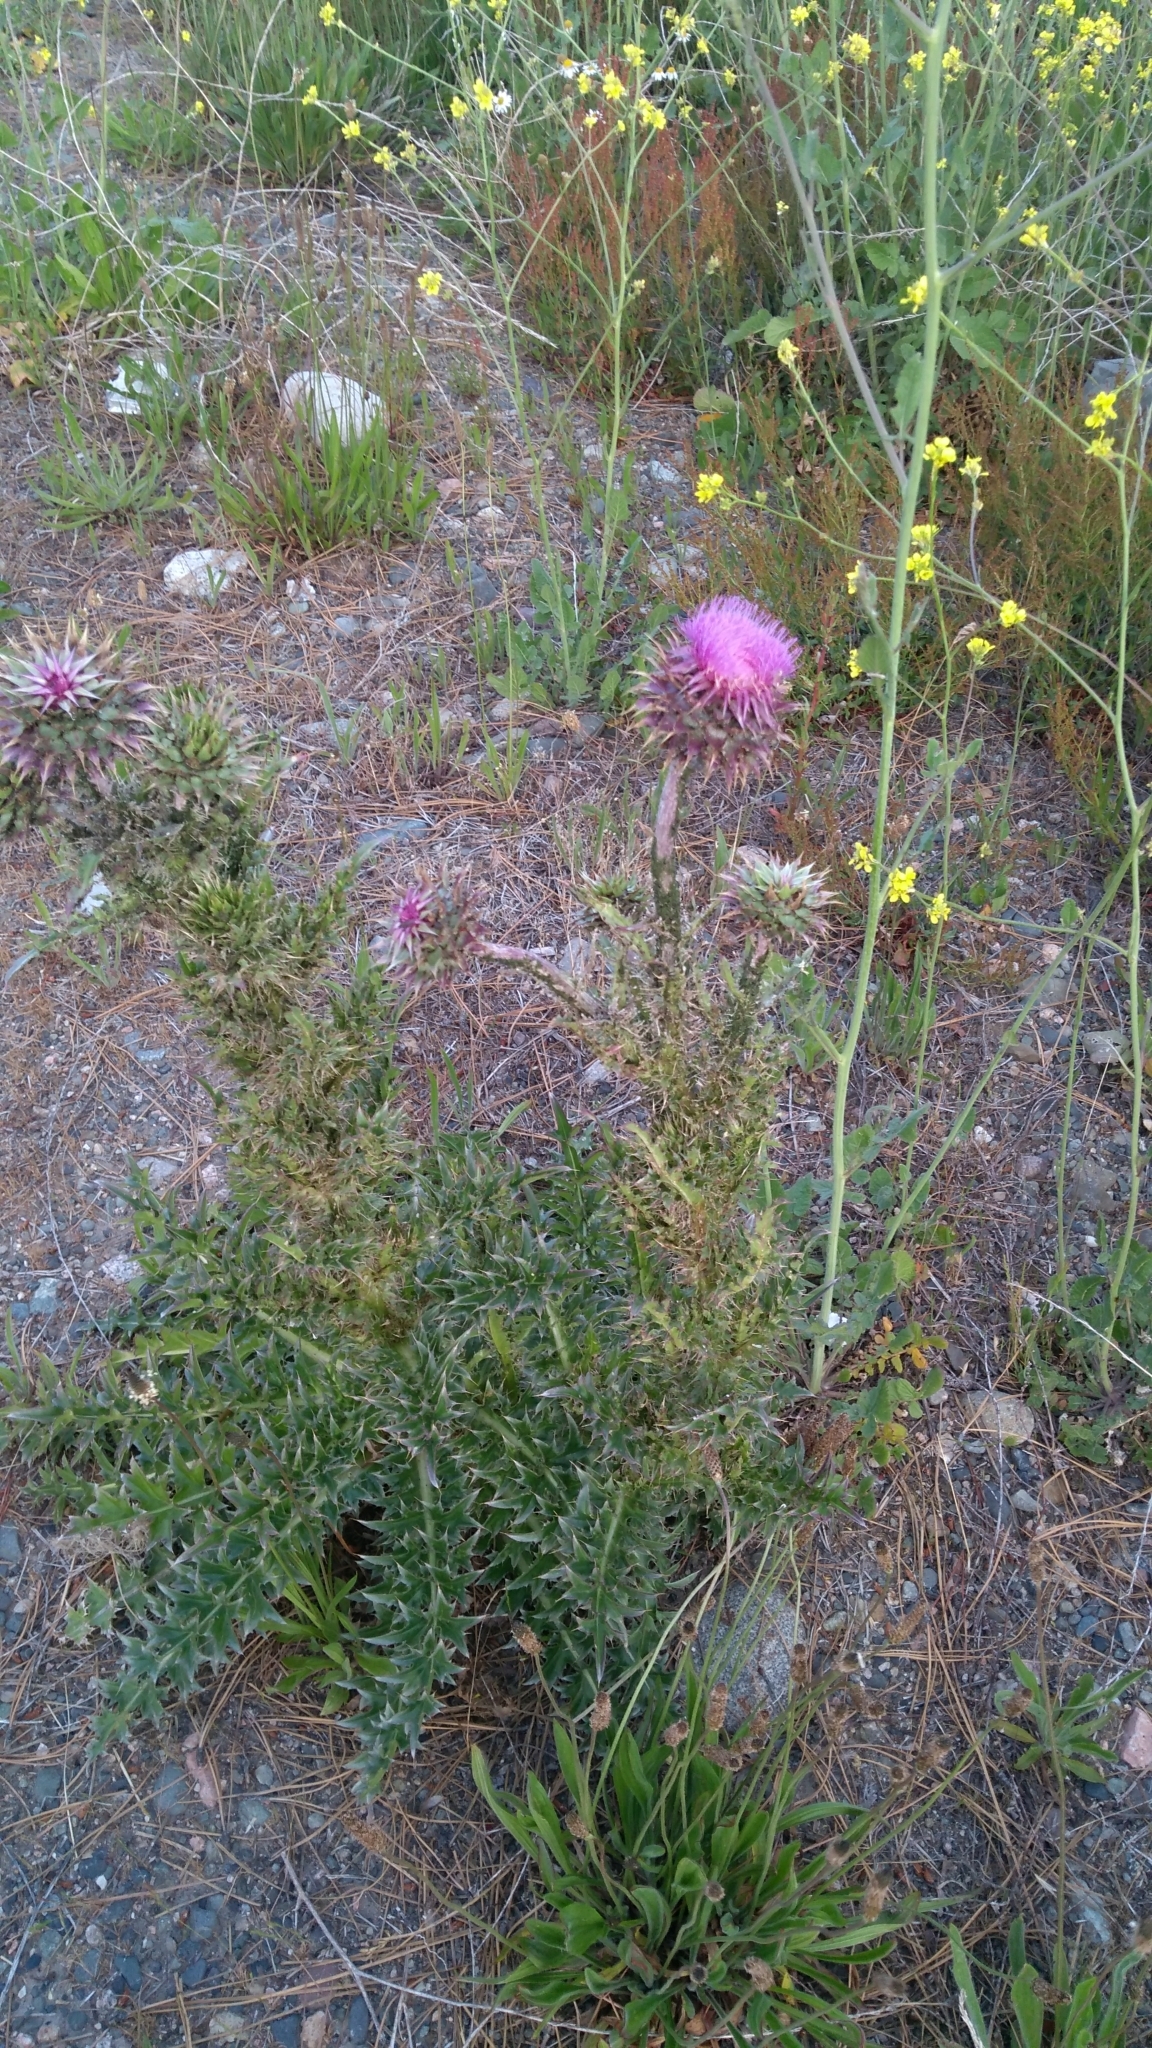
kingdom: Plantae
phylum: Tracheophyta
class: Magnoliopsida
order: Asterales
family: Asteraceae
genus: Carduus
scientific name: Carduus nutans
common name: Musk thistle
